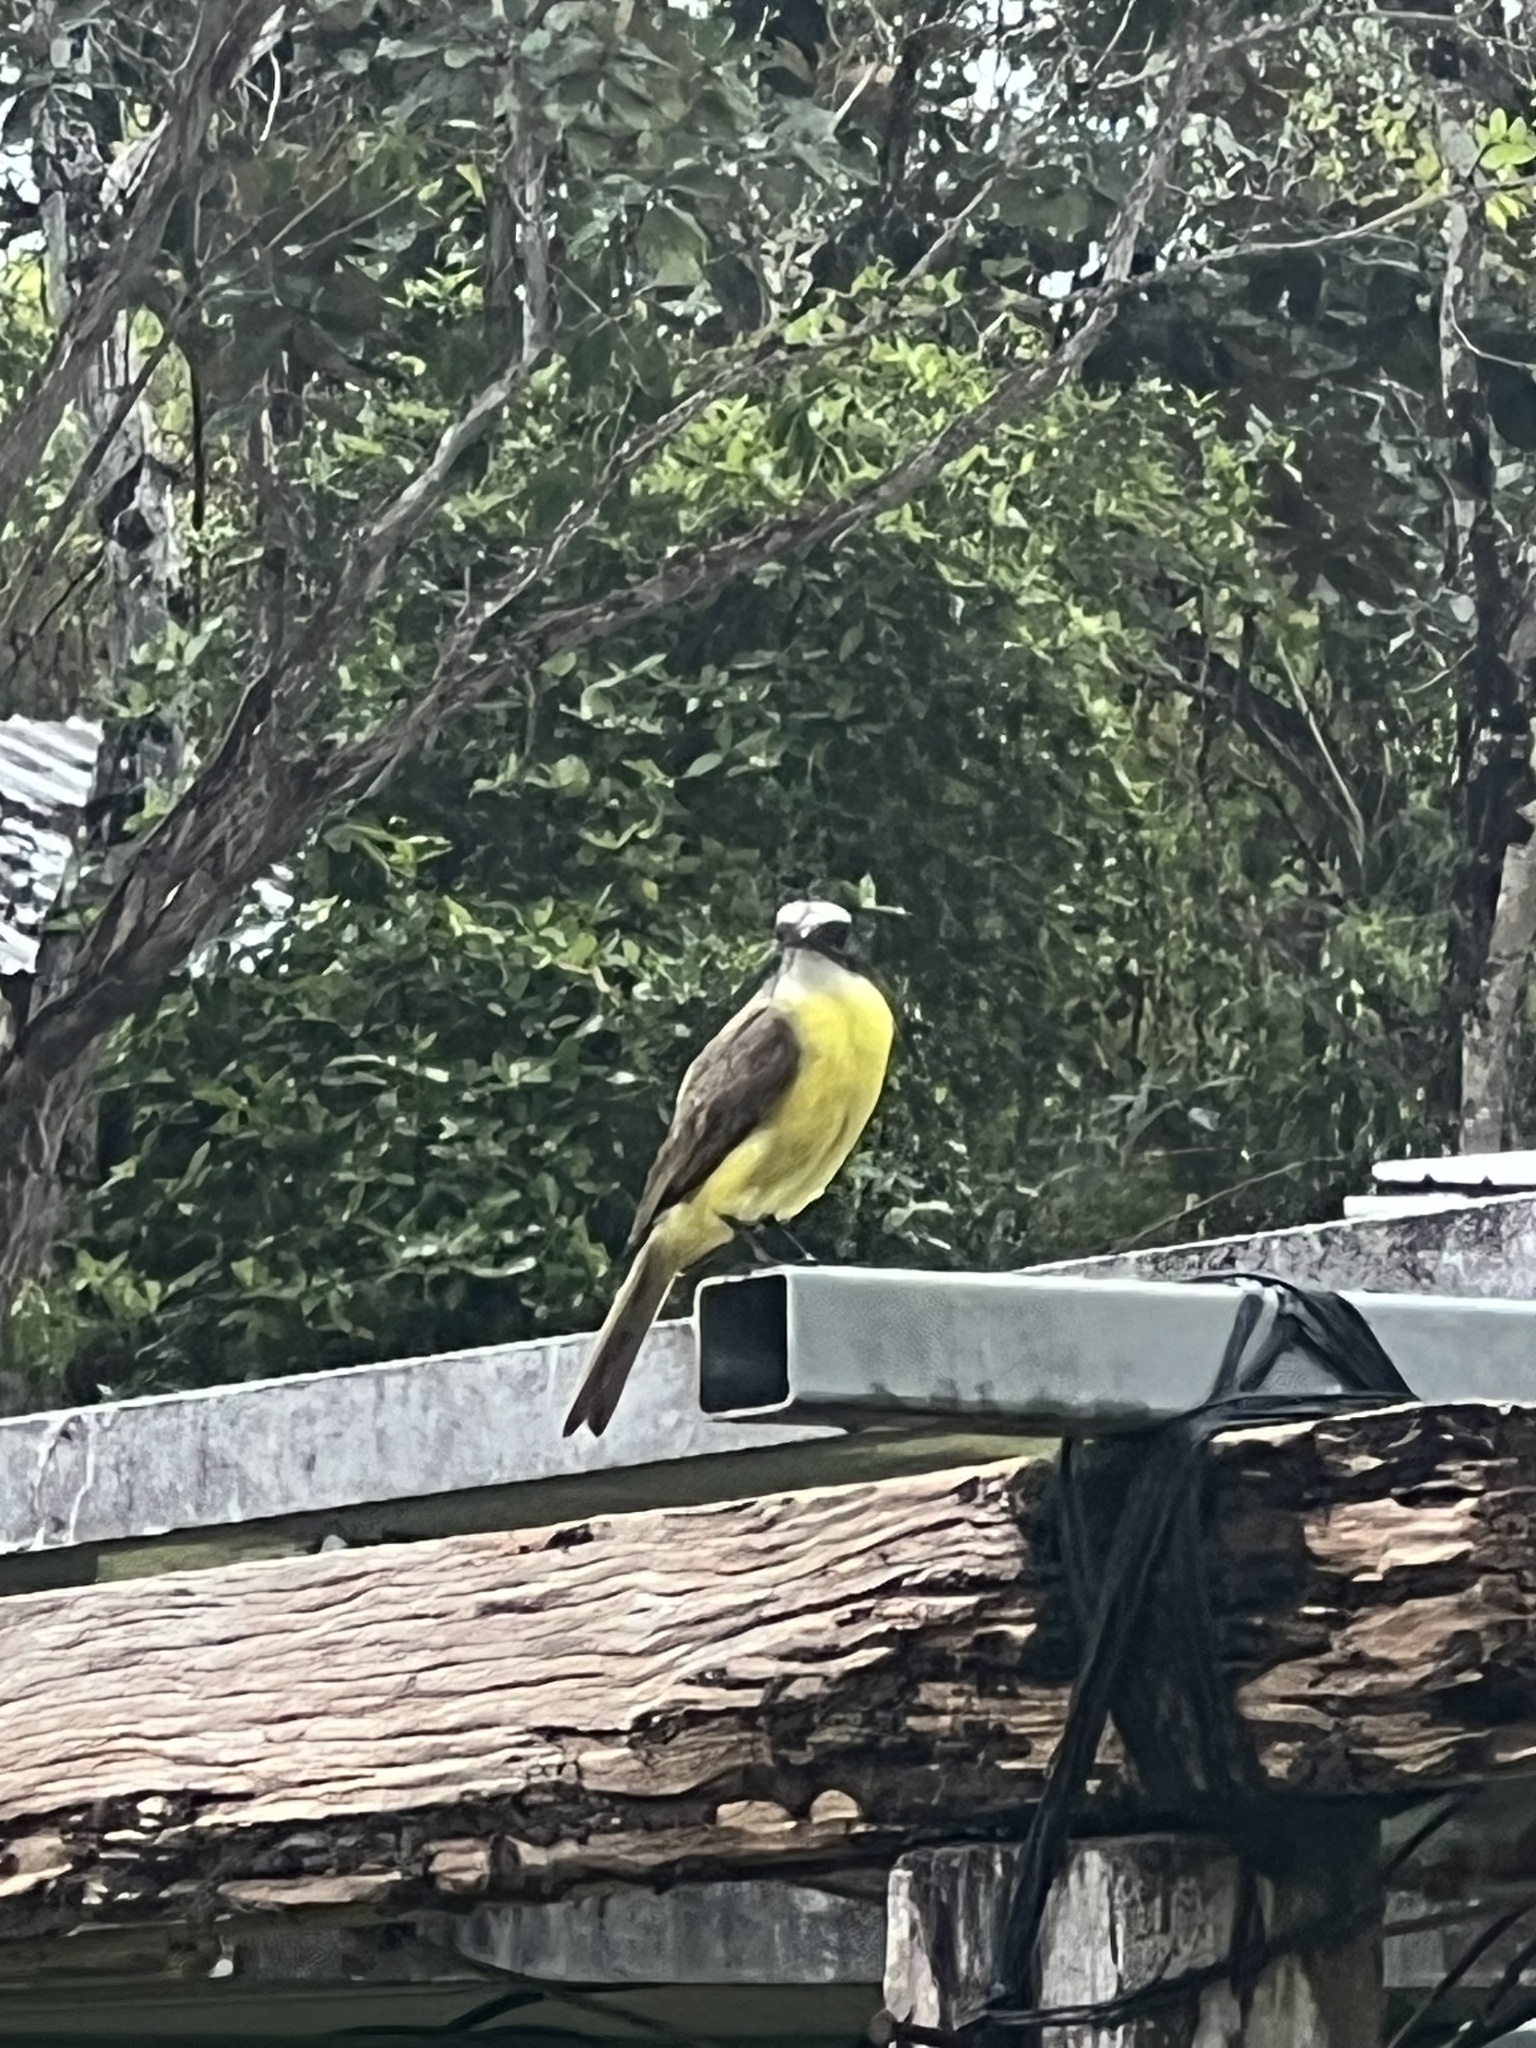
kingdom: Animalia
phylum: Chordata
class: Aves
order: Passeriformes
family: Tyrannidae
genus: Myiozetetes
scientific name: Myiozetetes similis
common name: Social flycatcher
